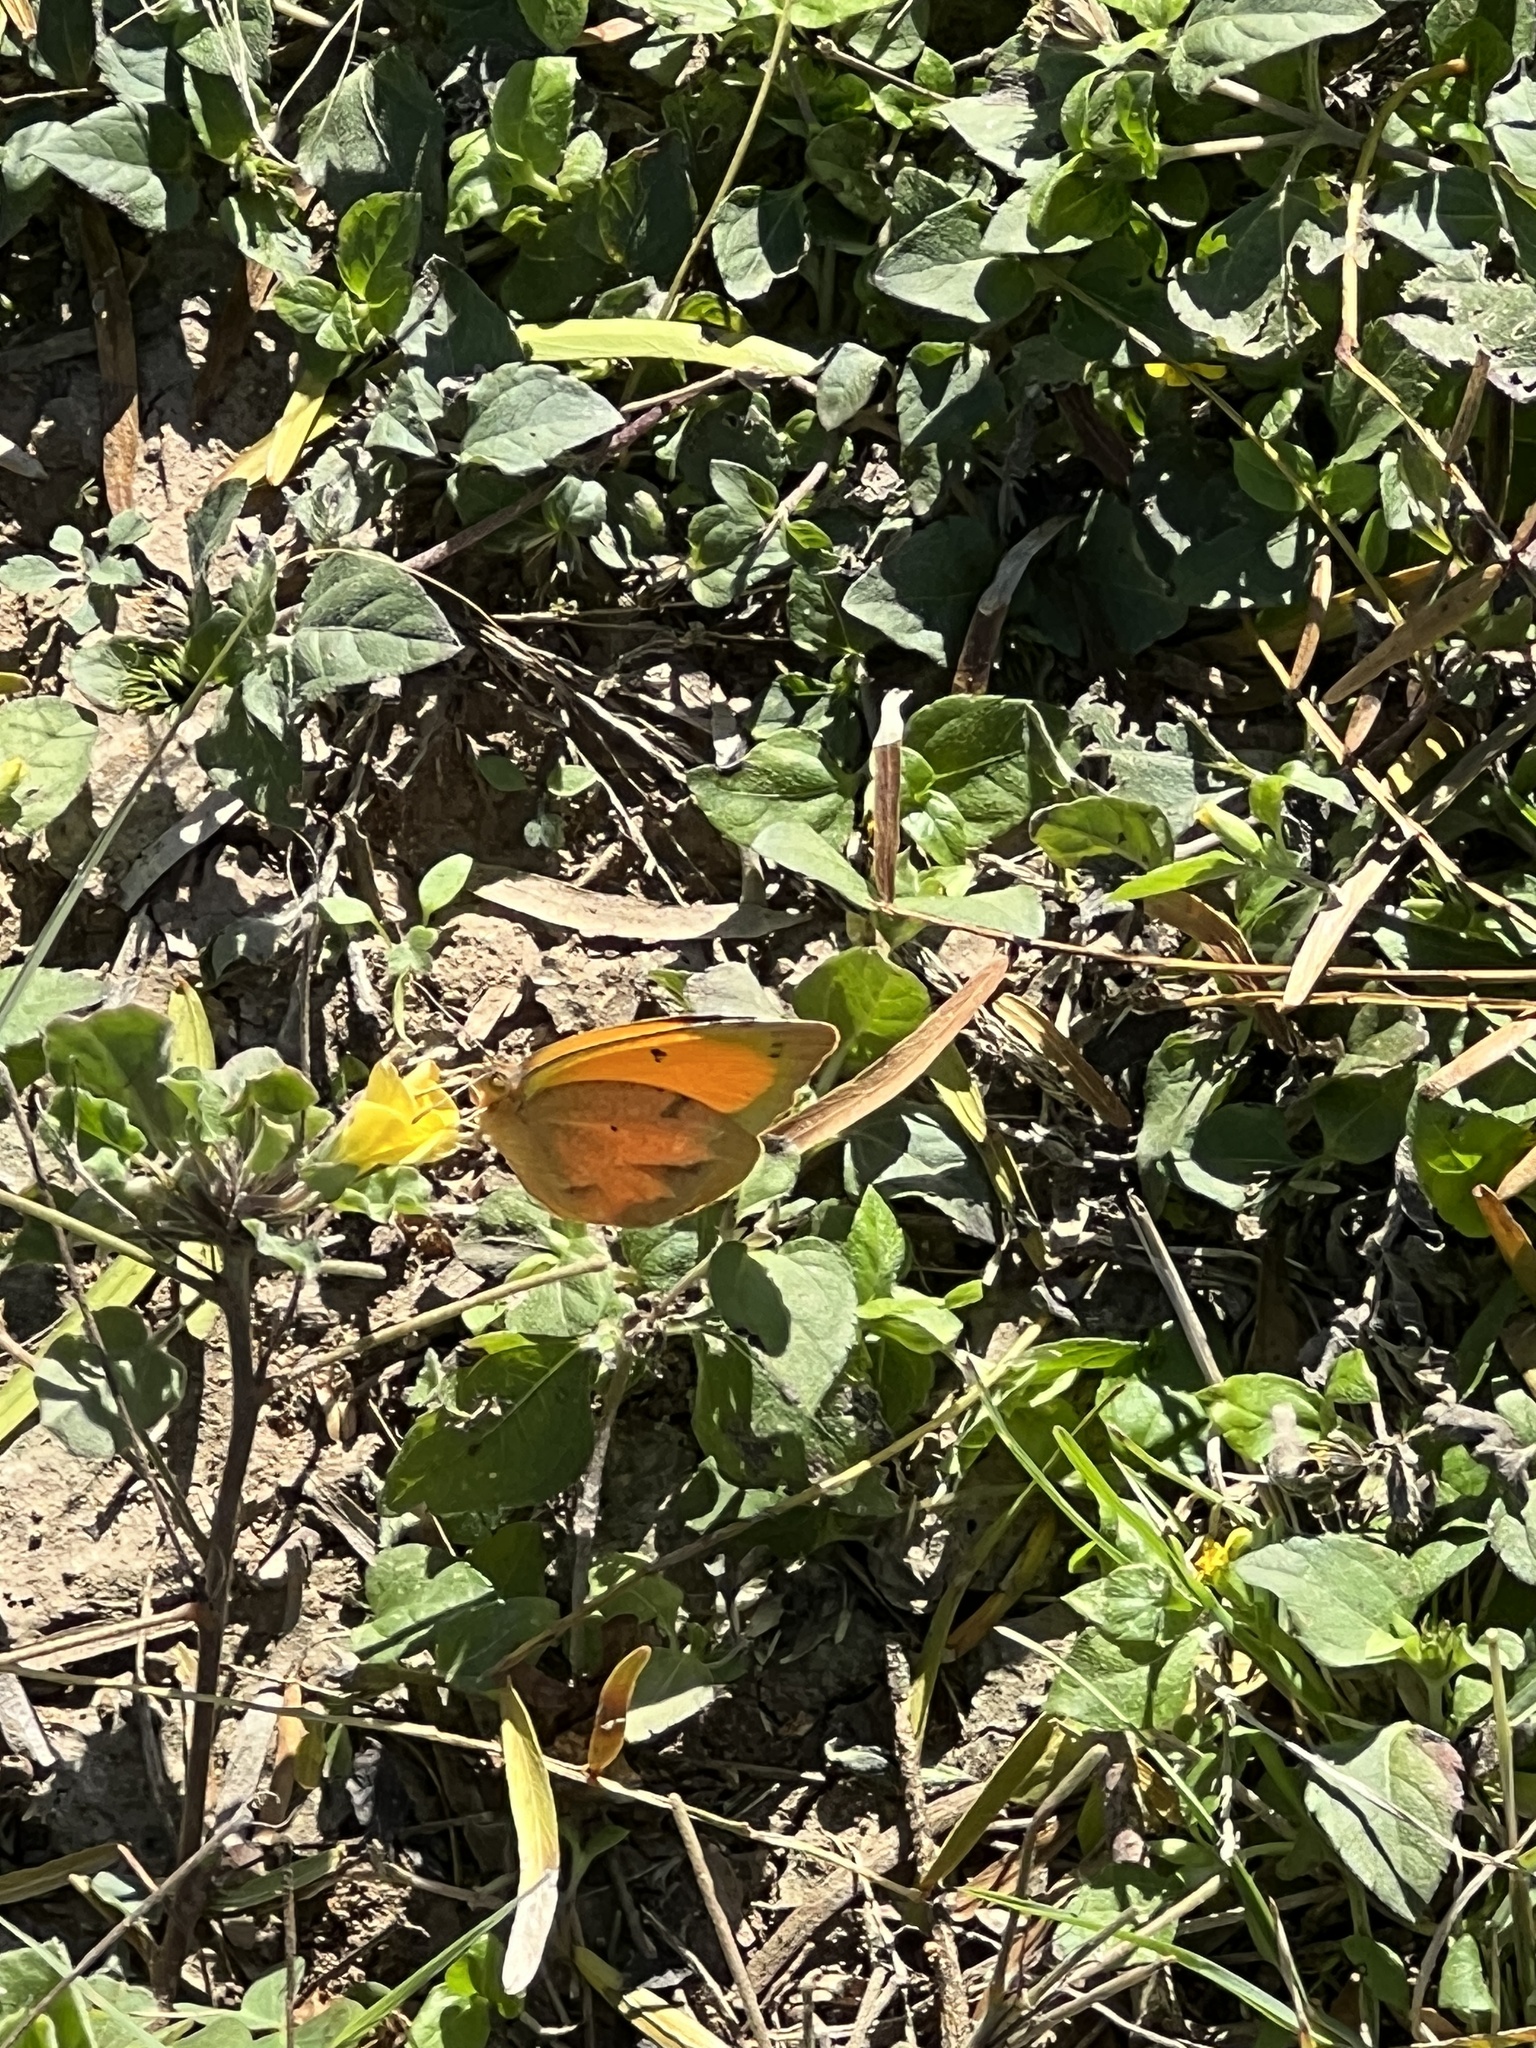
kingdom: Animalia
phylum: Arthropoda
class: Insecta
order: Lepidoptera
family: Pieridae
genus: Abaeis
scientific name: Abaeis nicippe
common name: Sleepy orange
